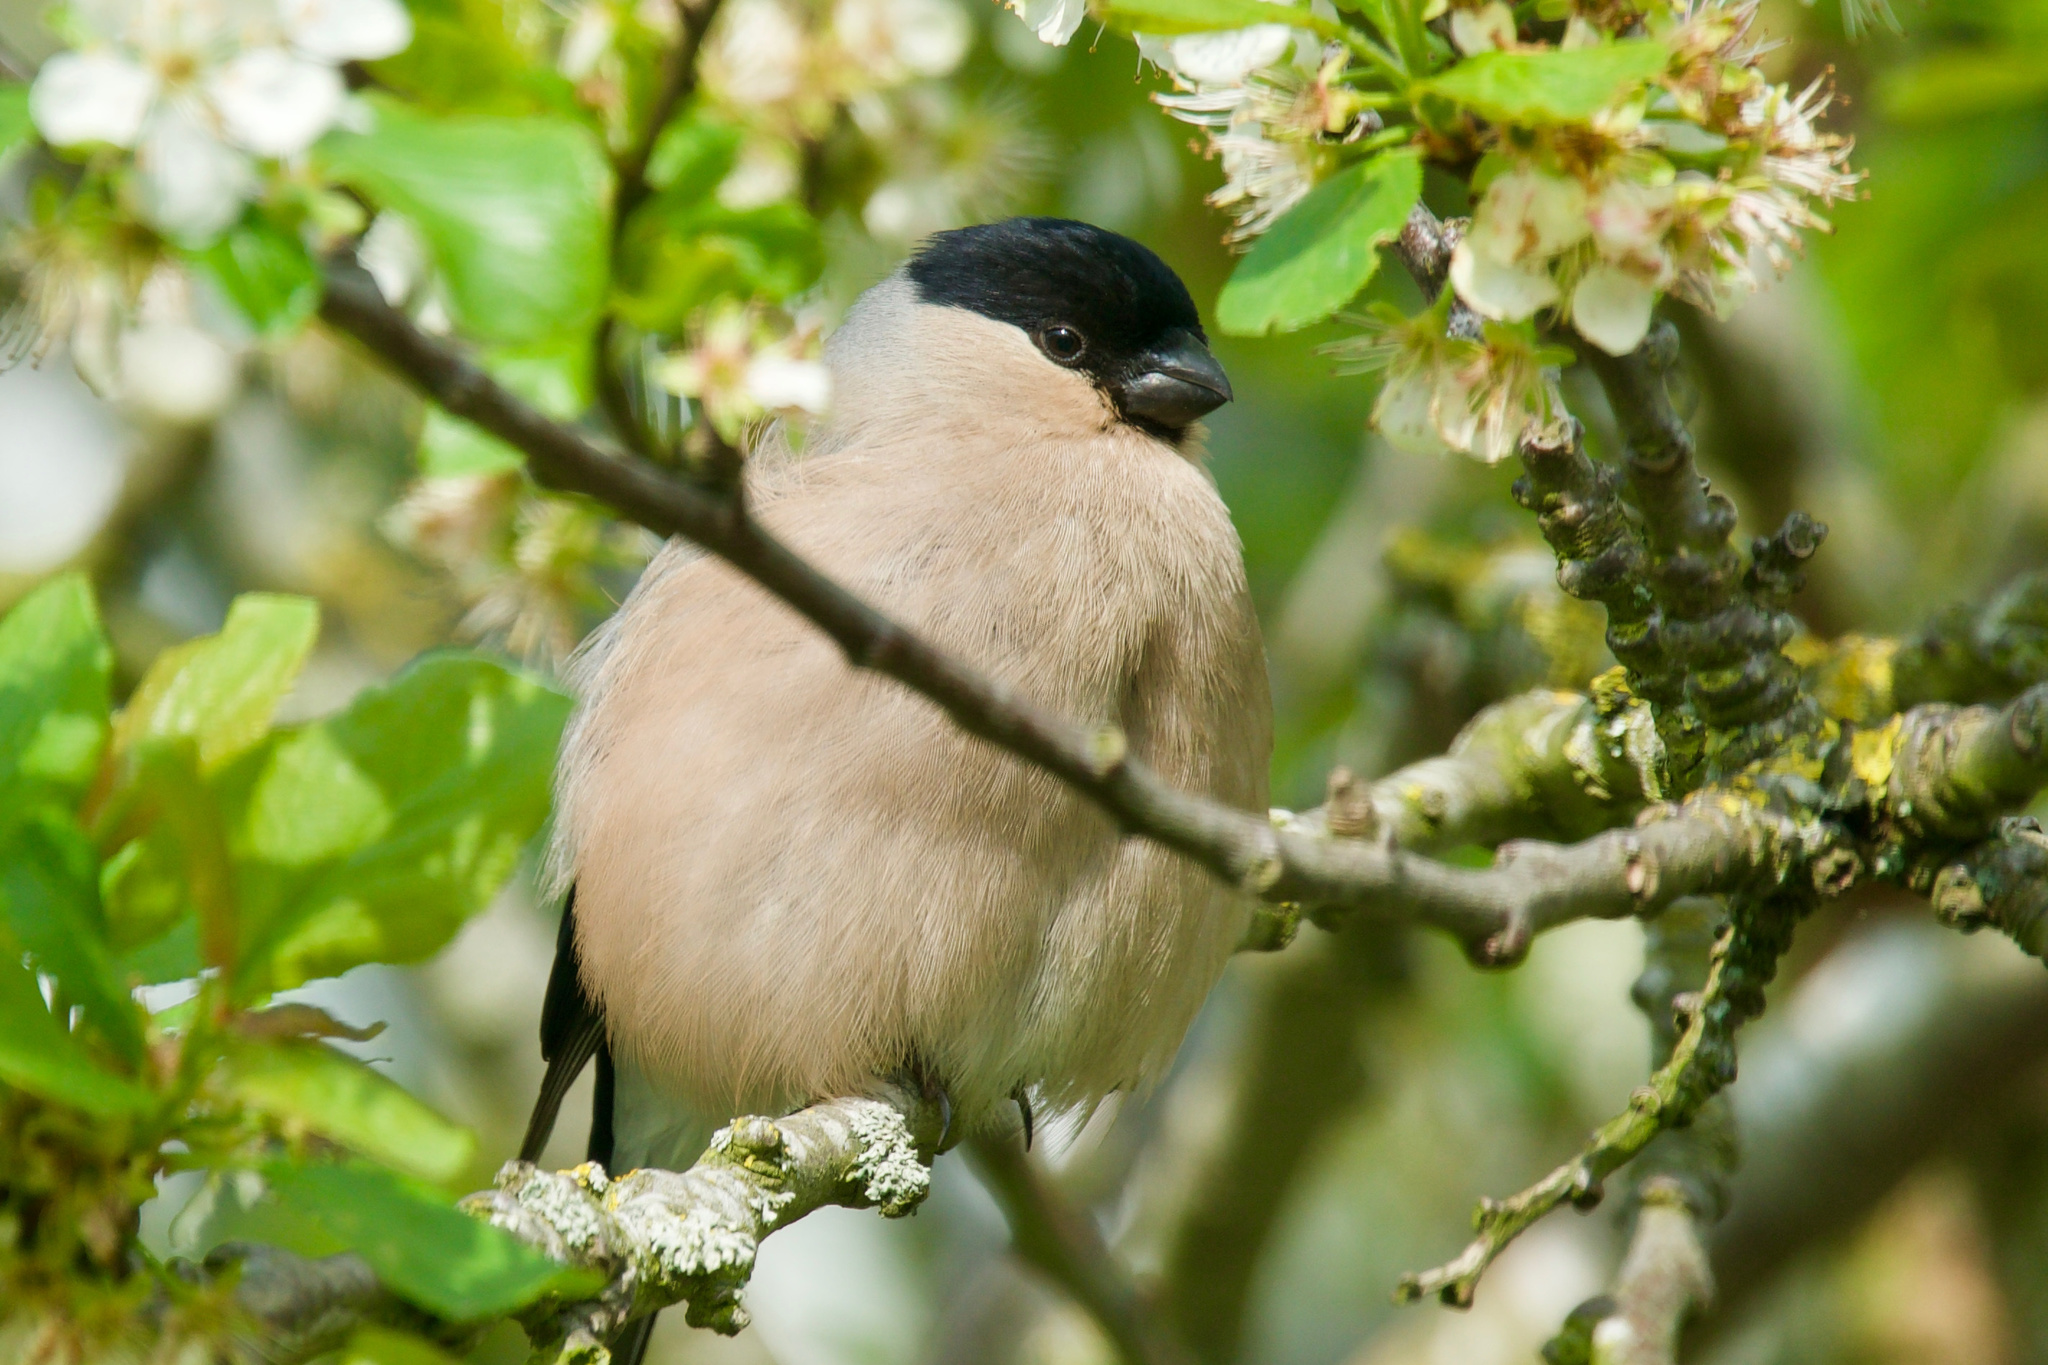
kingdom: Animalia
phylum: Chordata
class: Aves
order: Passeriformes
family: Fringillidae
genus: Pyrrhula
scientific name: Pyrrhula pyrrhula
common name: Eurasian bullfinch
